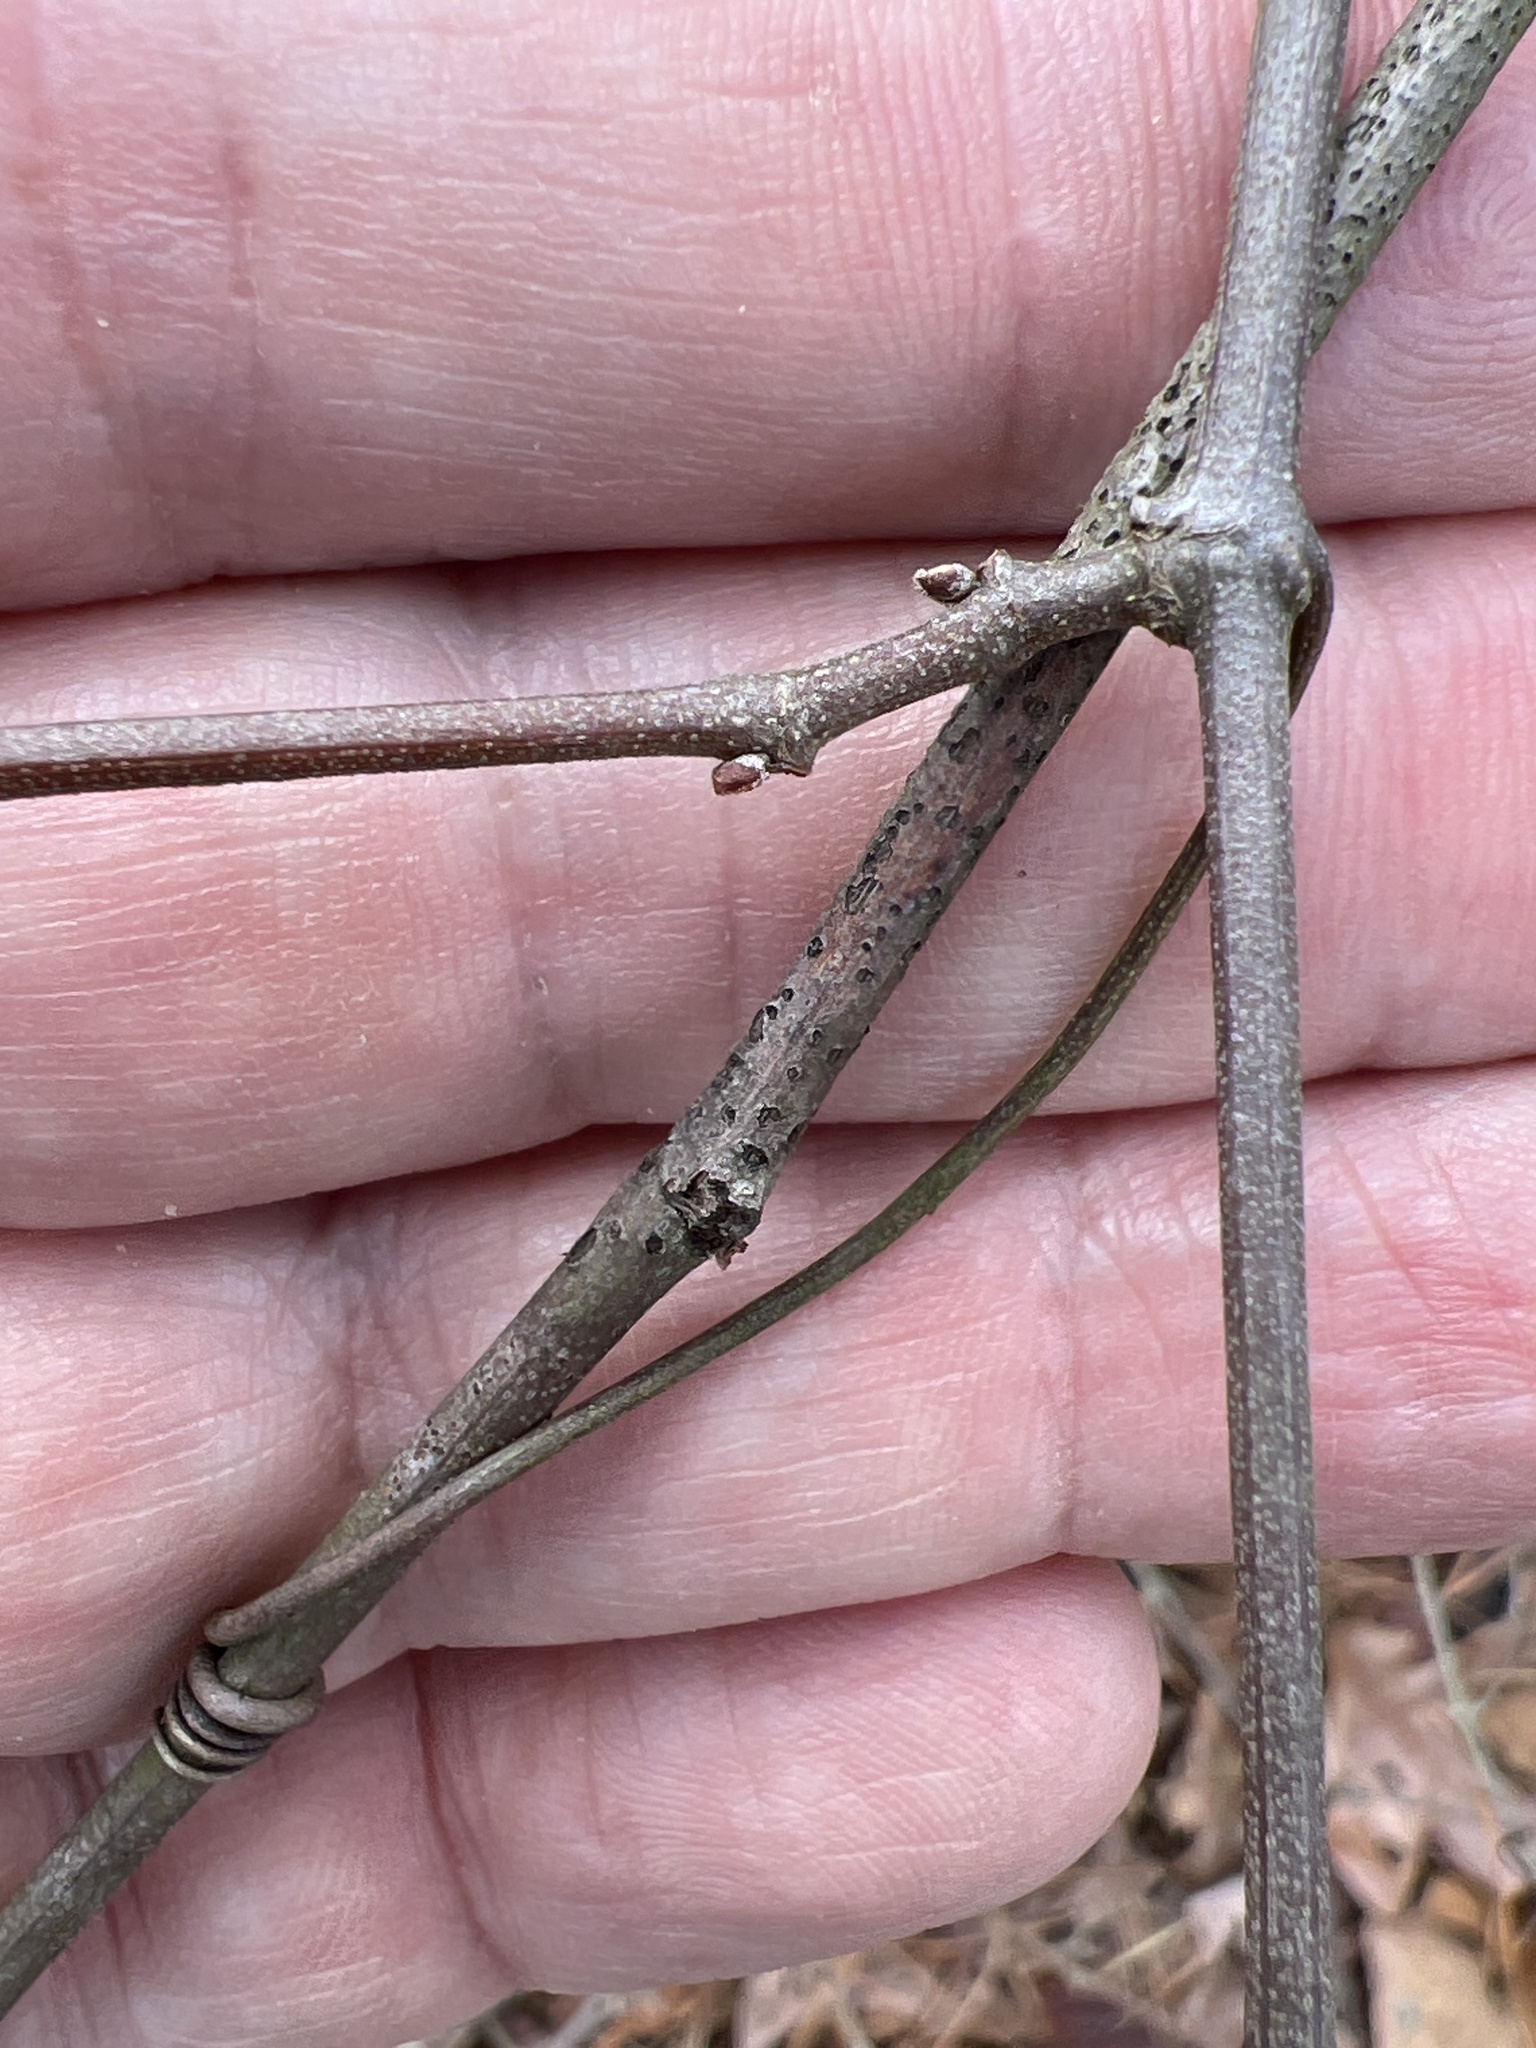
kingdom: Plantae
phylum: Tracheophyta
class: Magnoliopsida
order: Vitales
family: Vitaceae
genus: Vitis
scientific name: Vitis rotundifolia
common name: Muscadine grape
